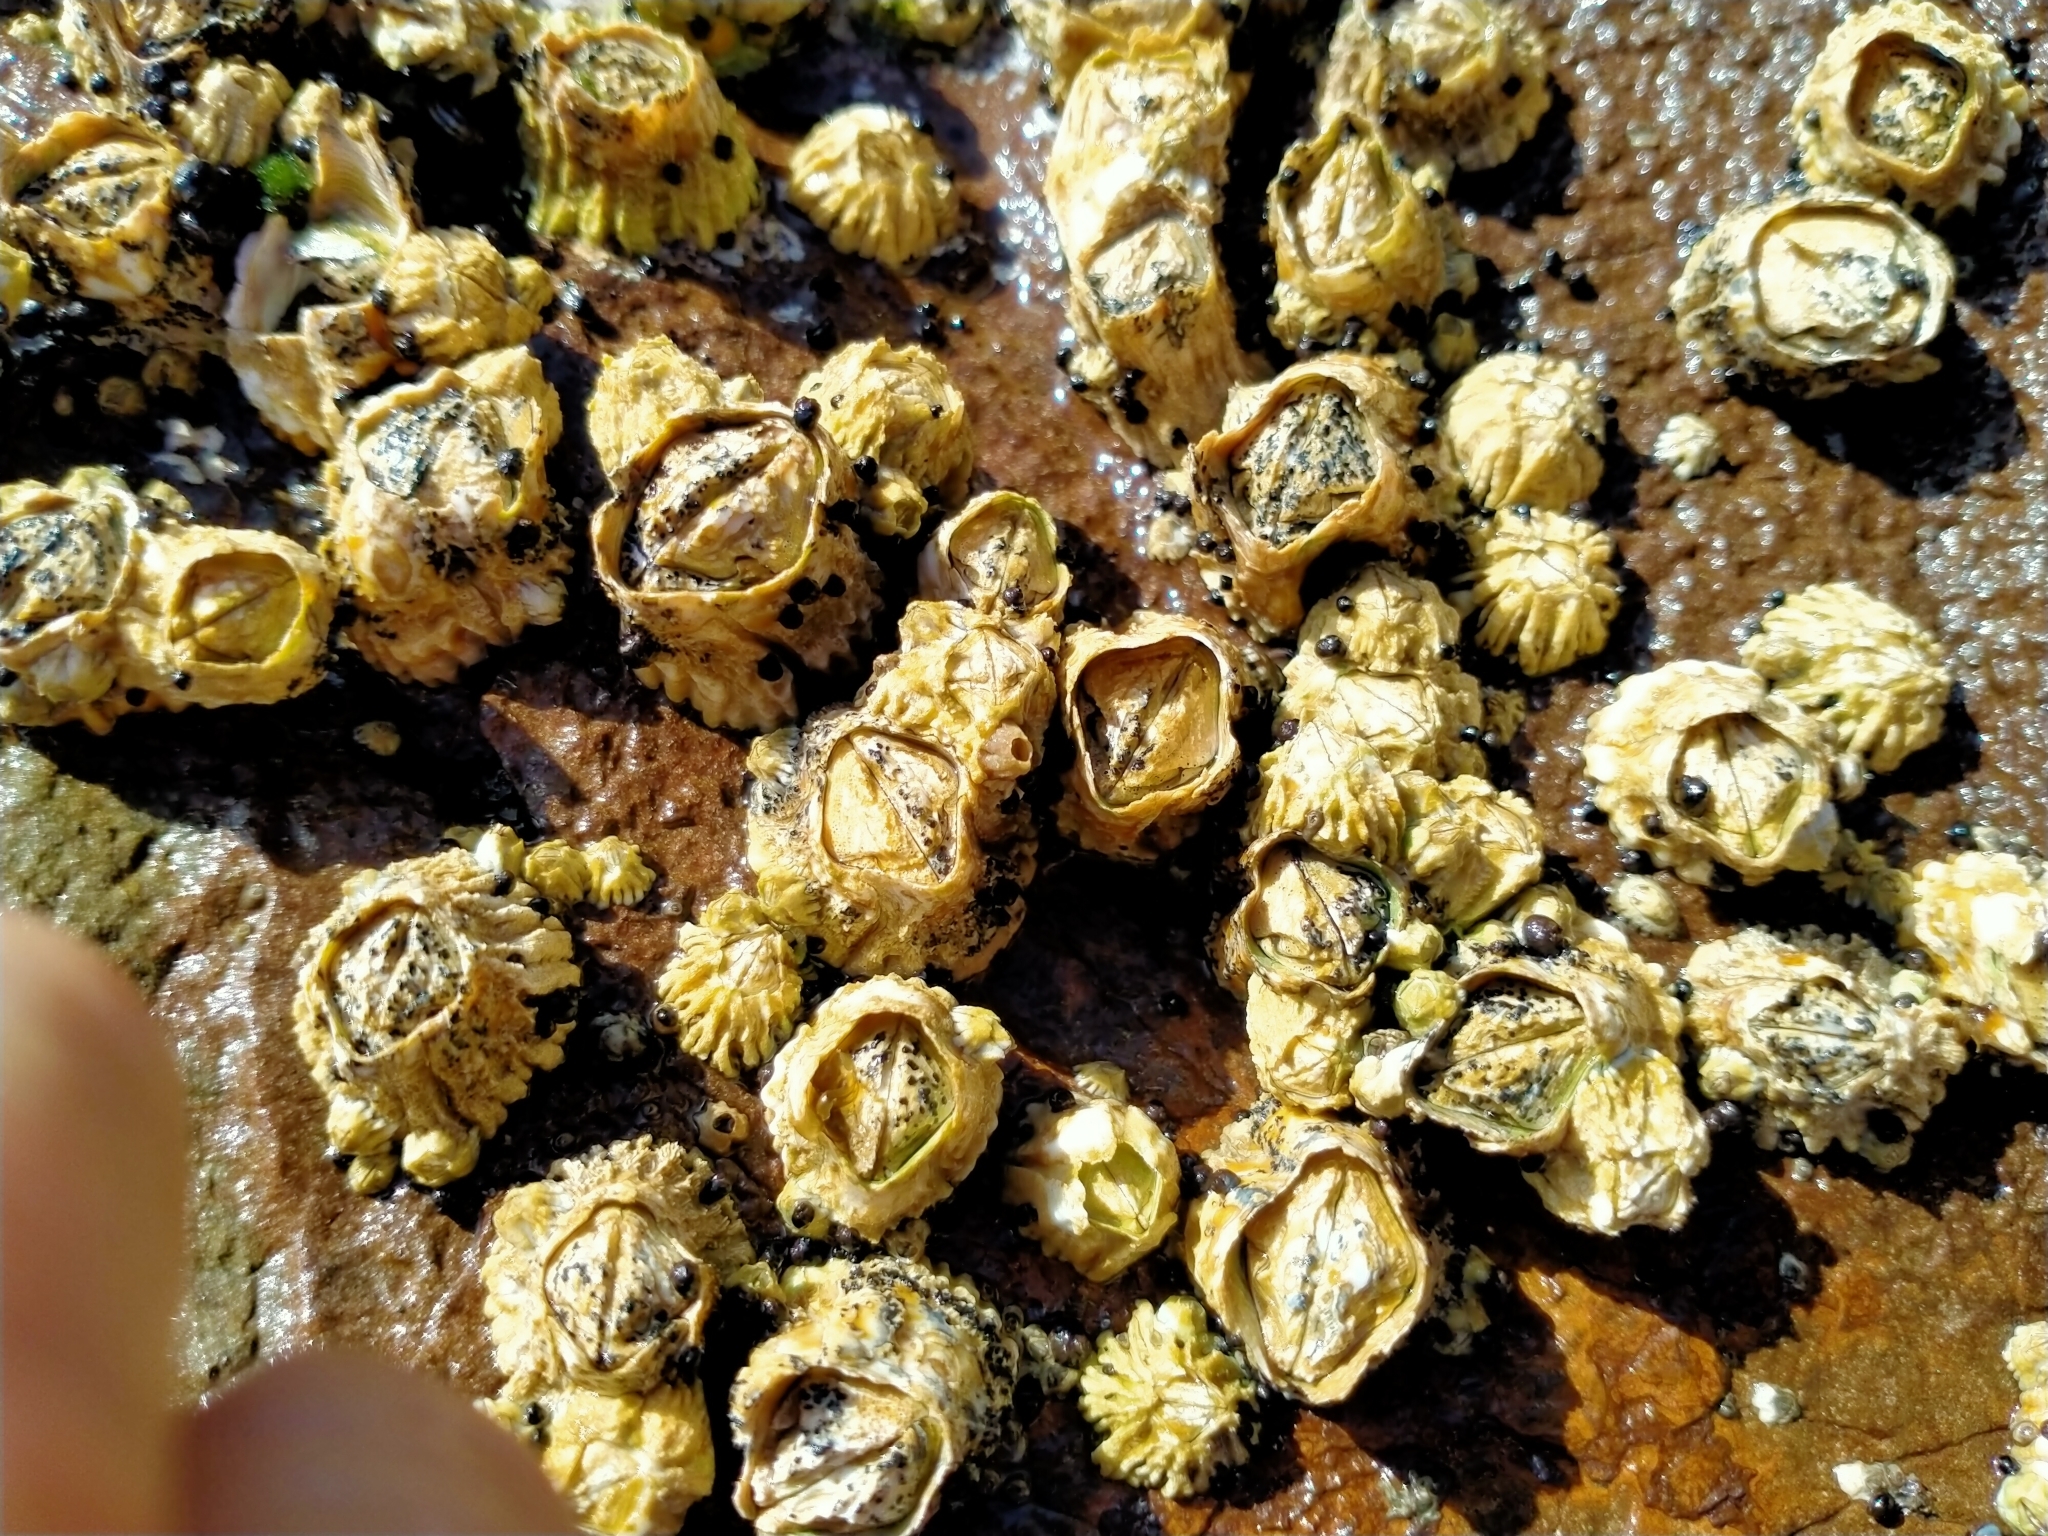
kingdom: Animalia
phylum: Arthropoda
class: Maxillopoda
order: Sessilia
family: Tetraclitidae
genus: Epopella
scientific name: Epopella plicata
